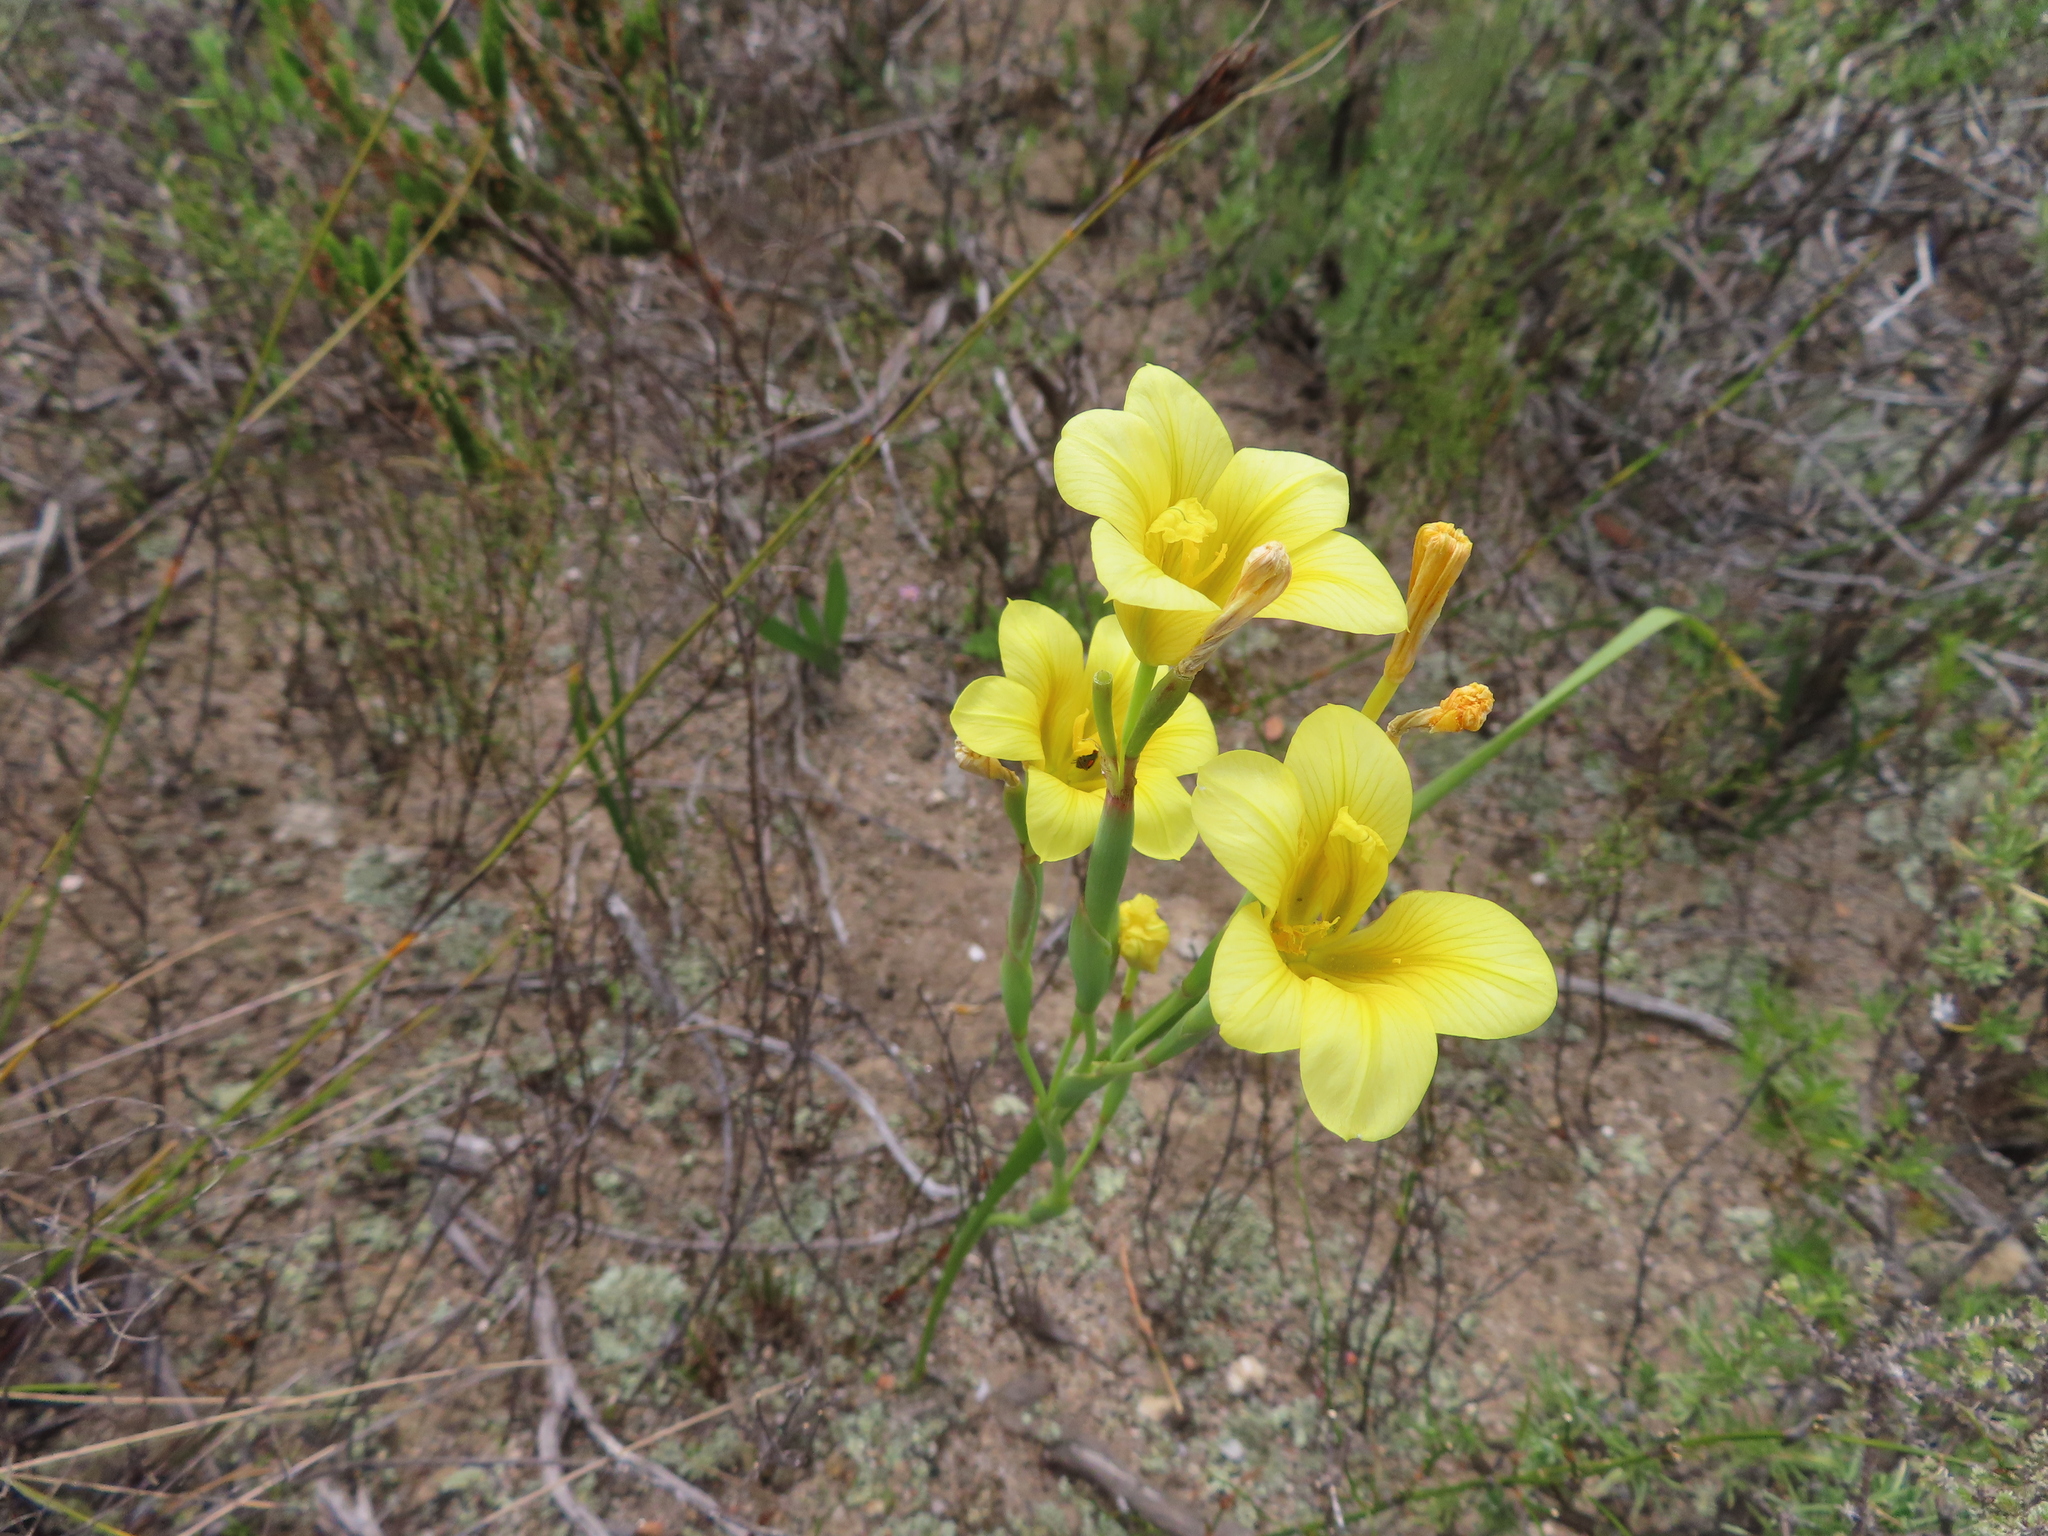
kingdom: Plantae
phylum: Tracheophyta
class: Liliopsida
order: Asparagales
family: Iridaceae
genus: Moraea
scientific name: Moraea ochroleuca
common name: Red tulp
